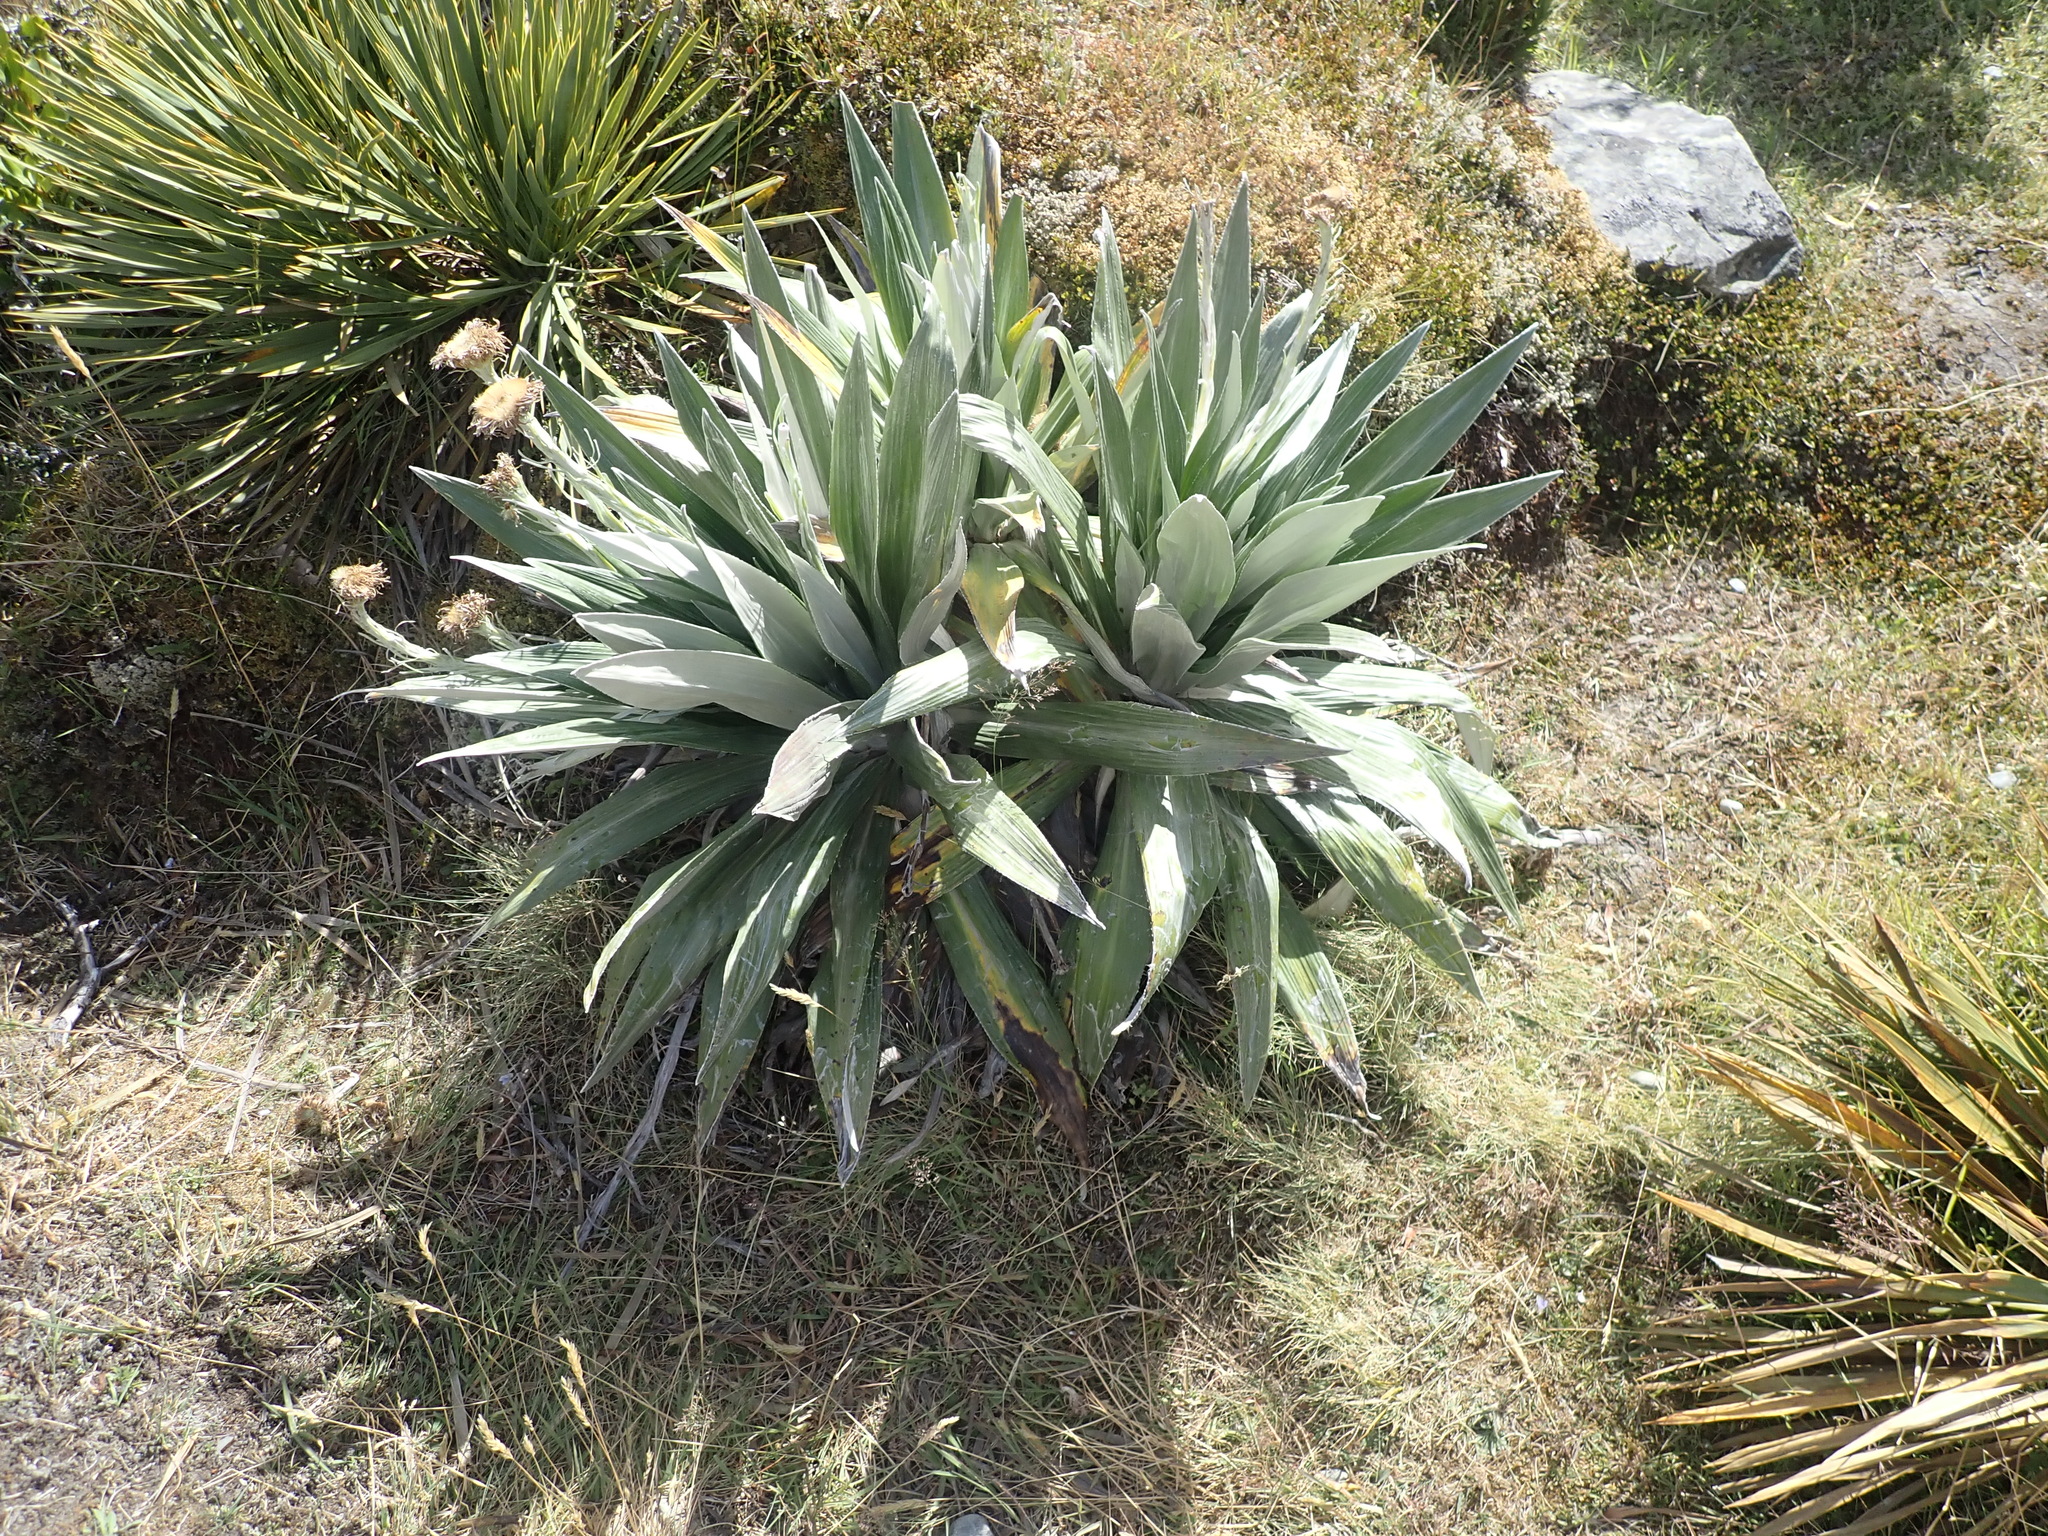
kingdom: Plantae
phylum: Tracheophyta
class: Magnoliopsida
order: Asterales
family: Asteraceae
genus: Celmisia
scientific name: Celmisia semicordata
